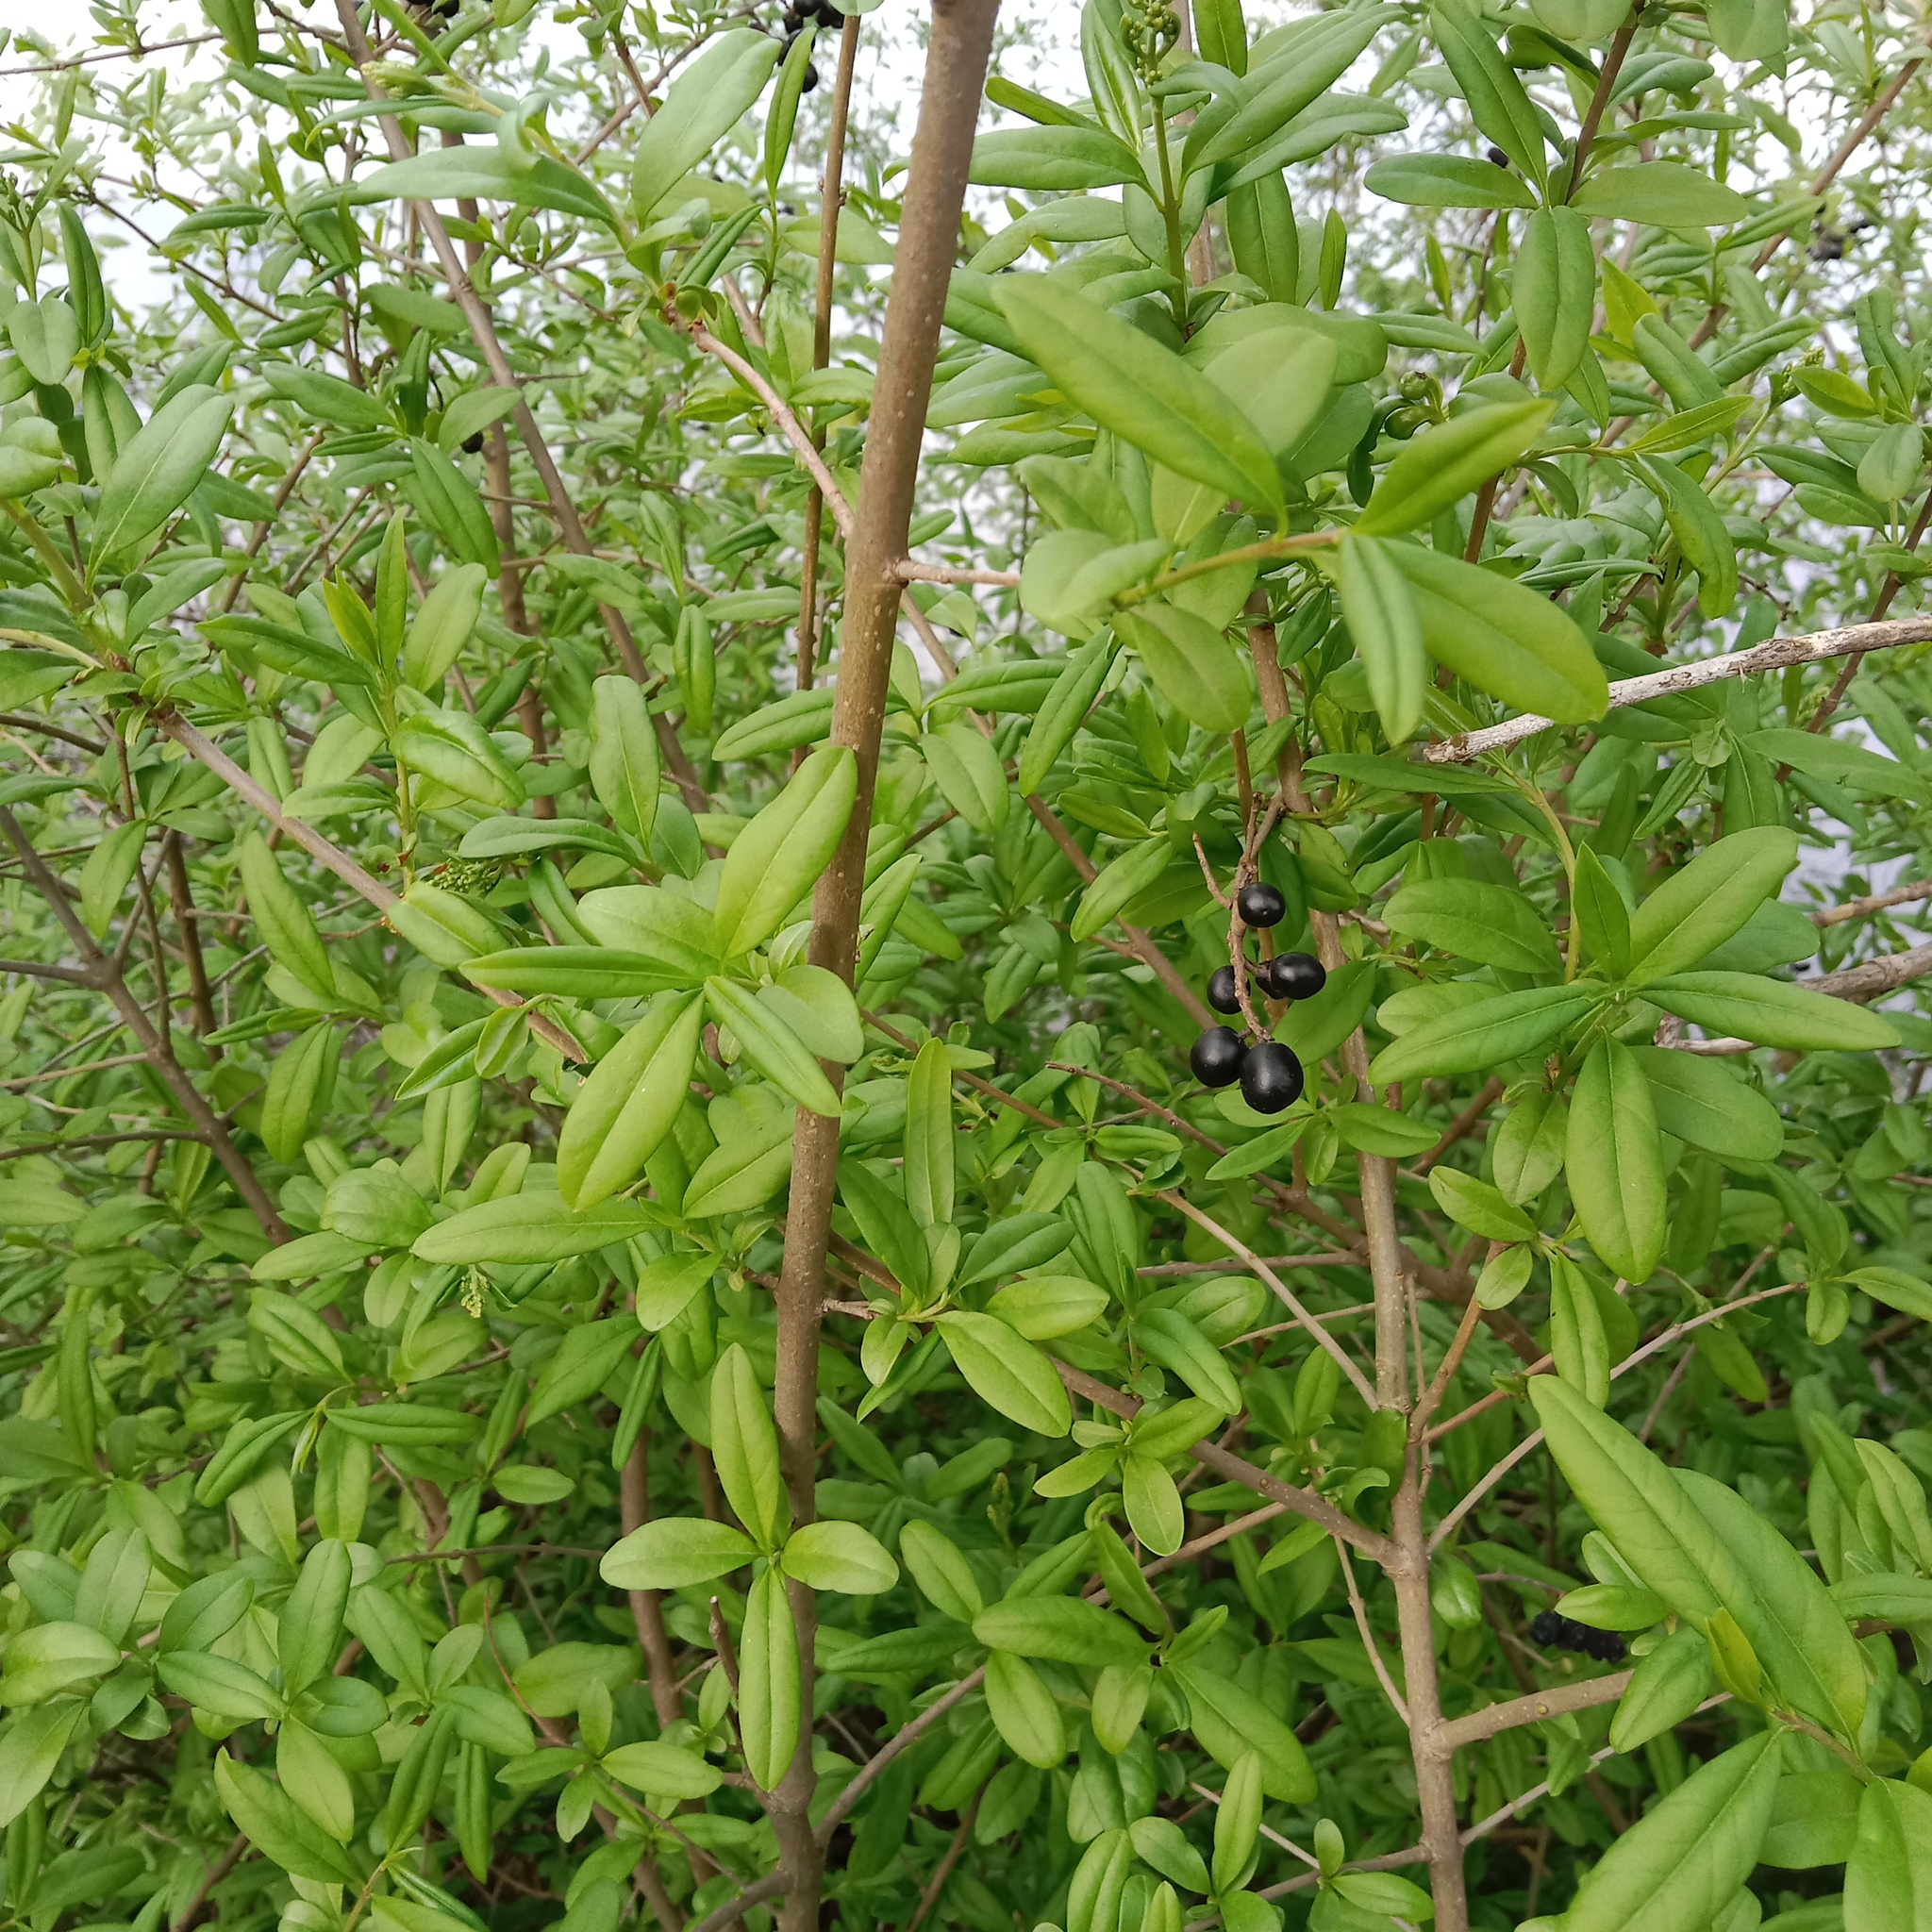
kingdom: Plantae
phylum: Tracheophyta
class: Magnoliopsida
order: Lamiales
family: Oleaceae
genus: Ligustrum
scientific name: Ligustrum vulgare
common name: Wild privet
